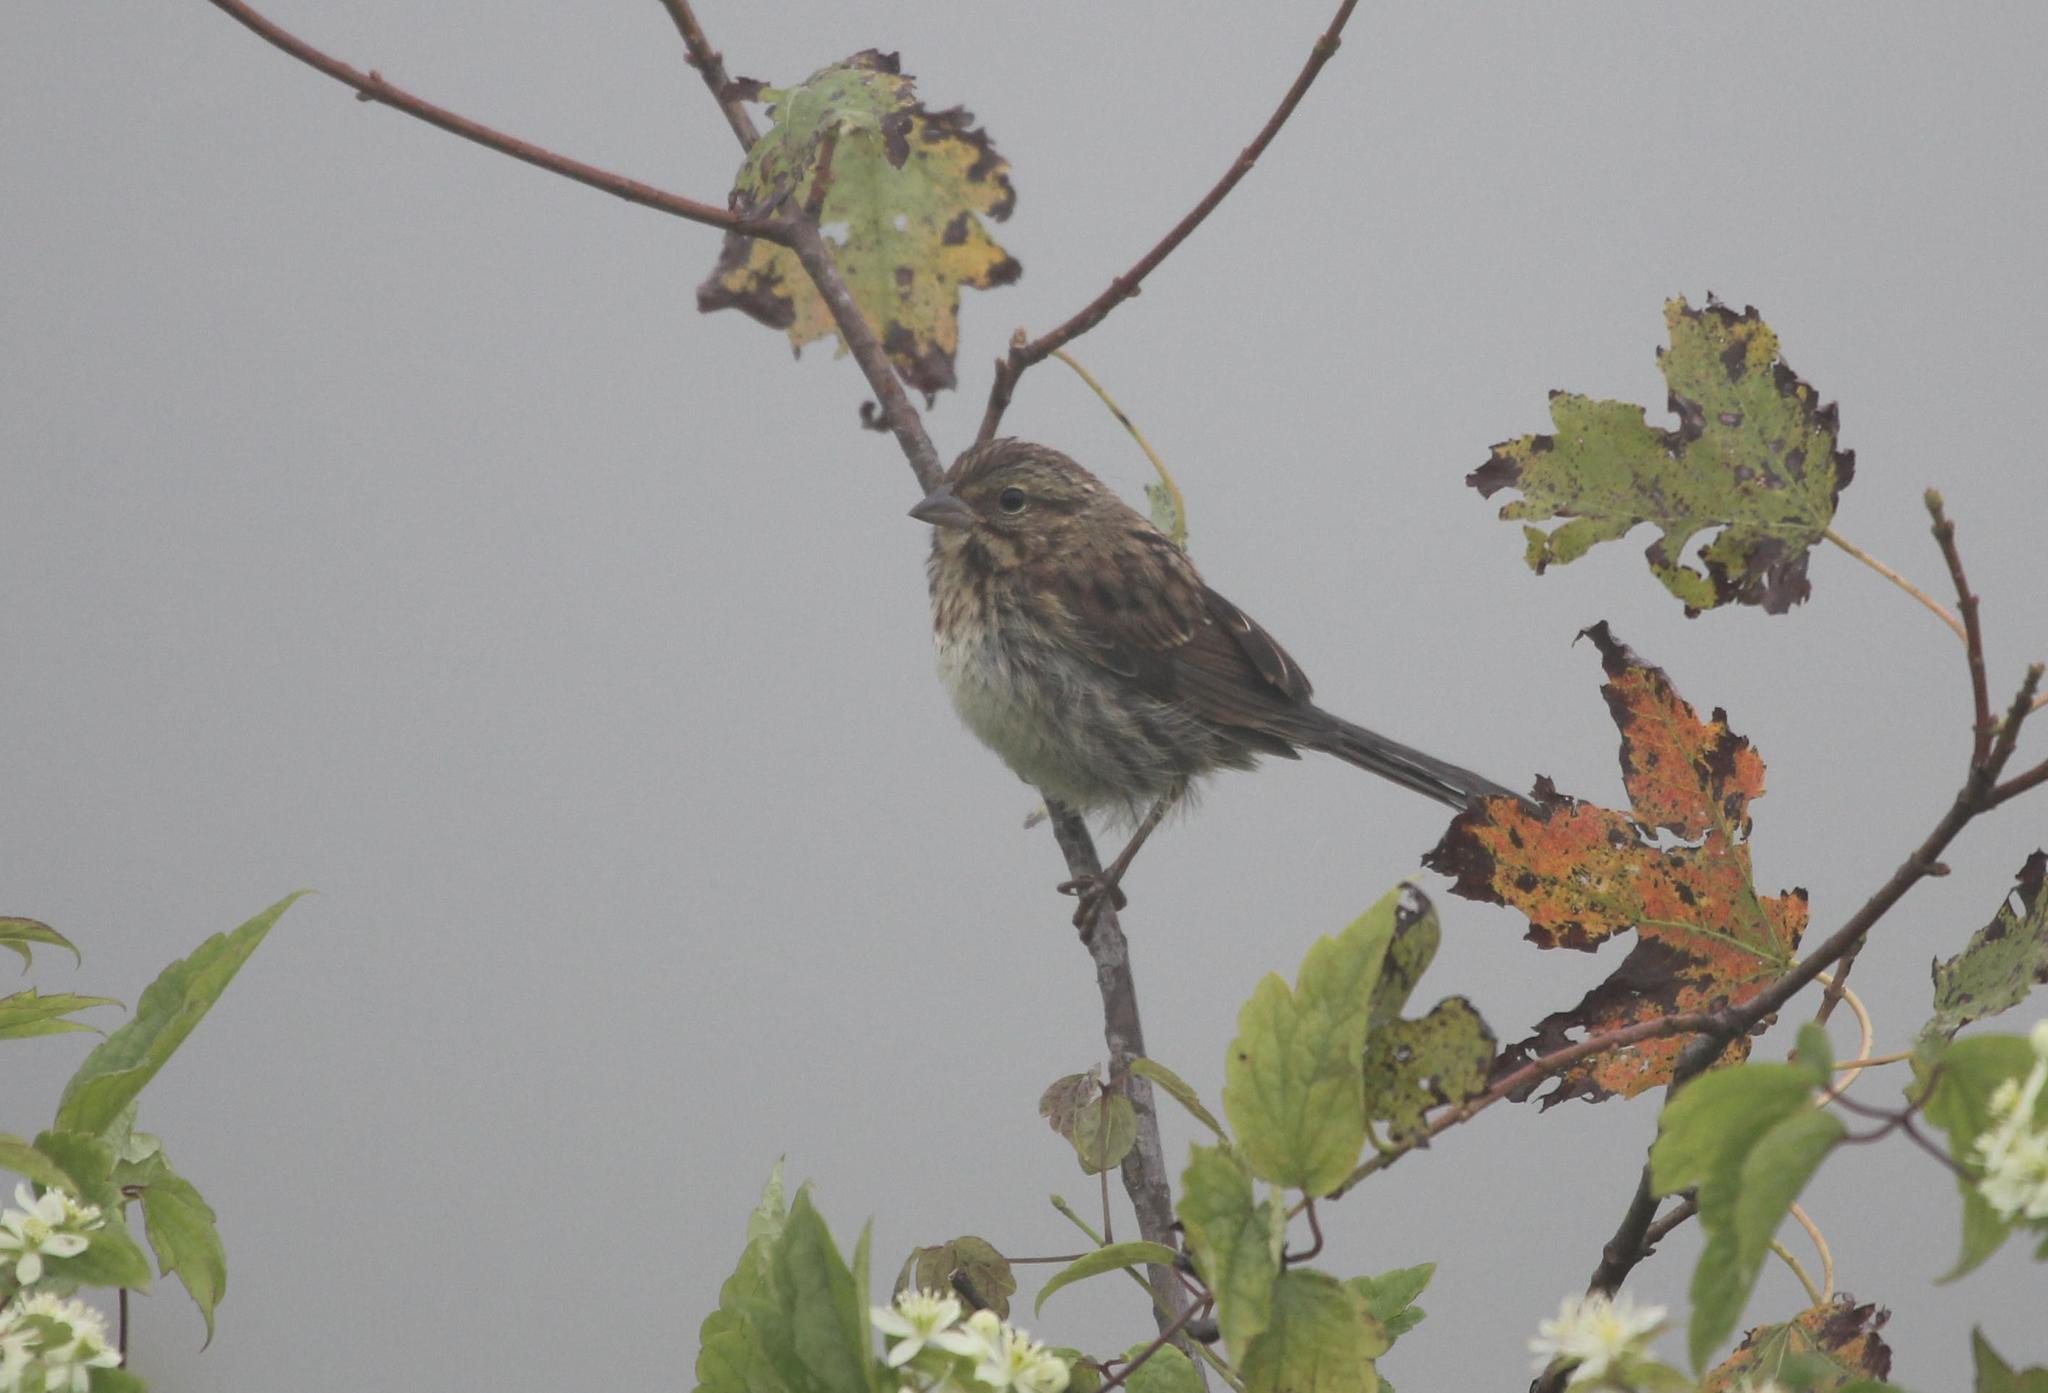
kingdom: Animalia
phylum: Chordata
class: Aves
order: Passeriformes
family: Passerellidae
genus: Melospiza
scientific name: Melospiza melodia
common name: Song sparrow
